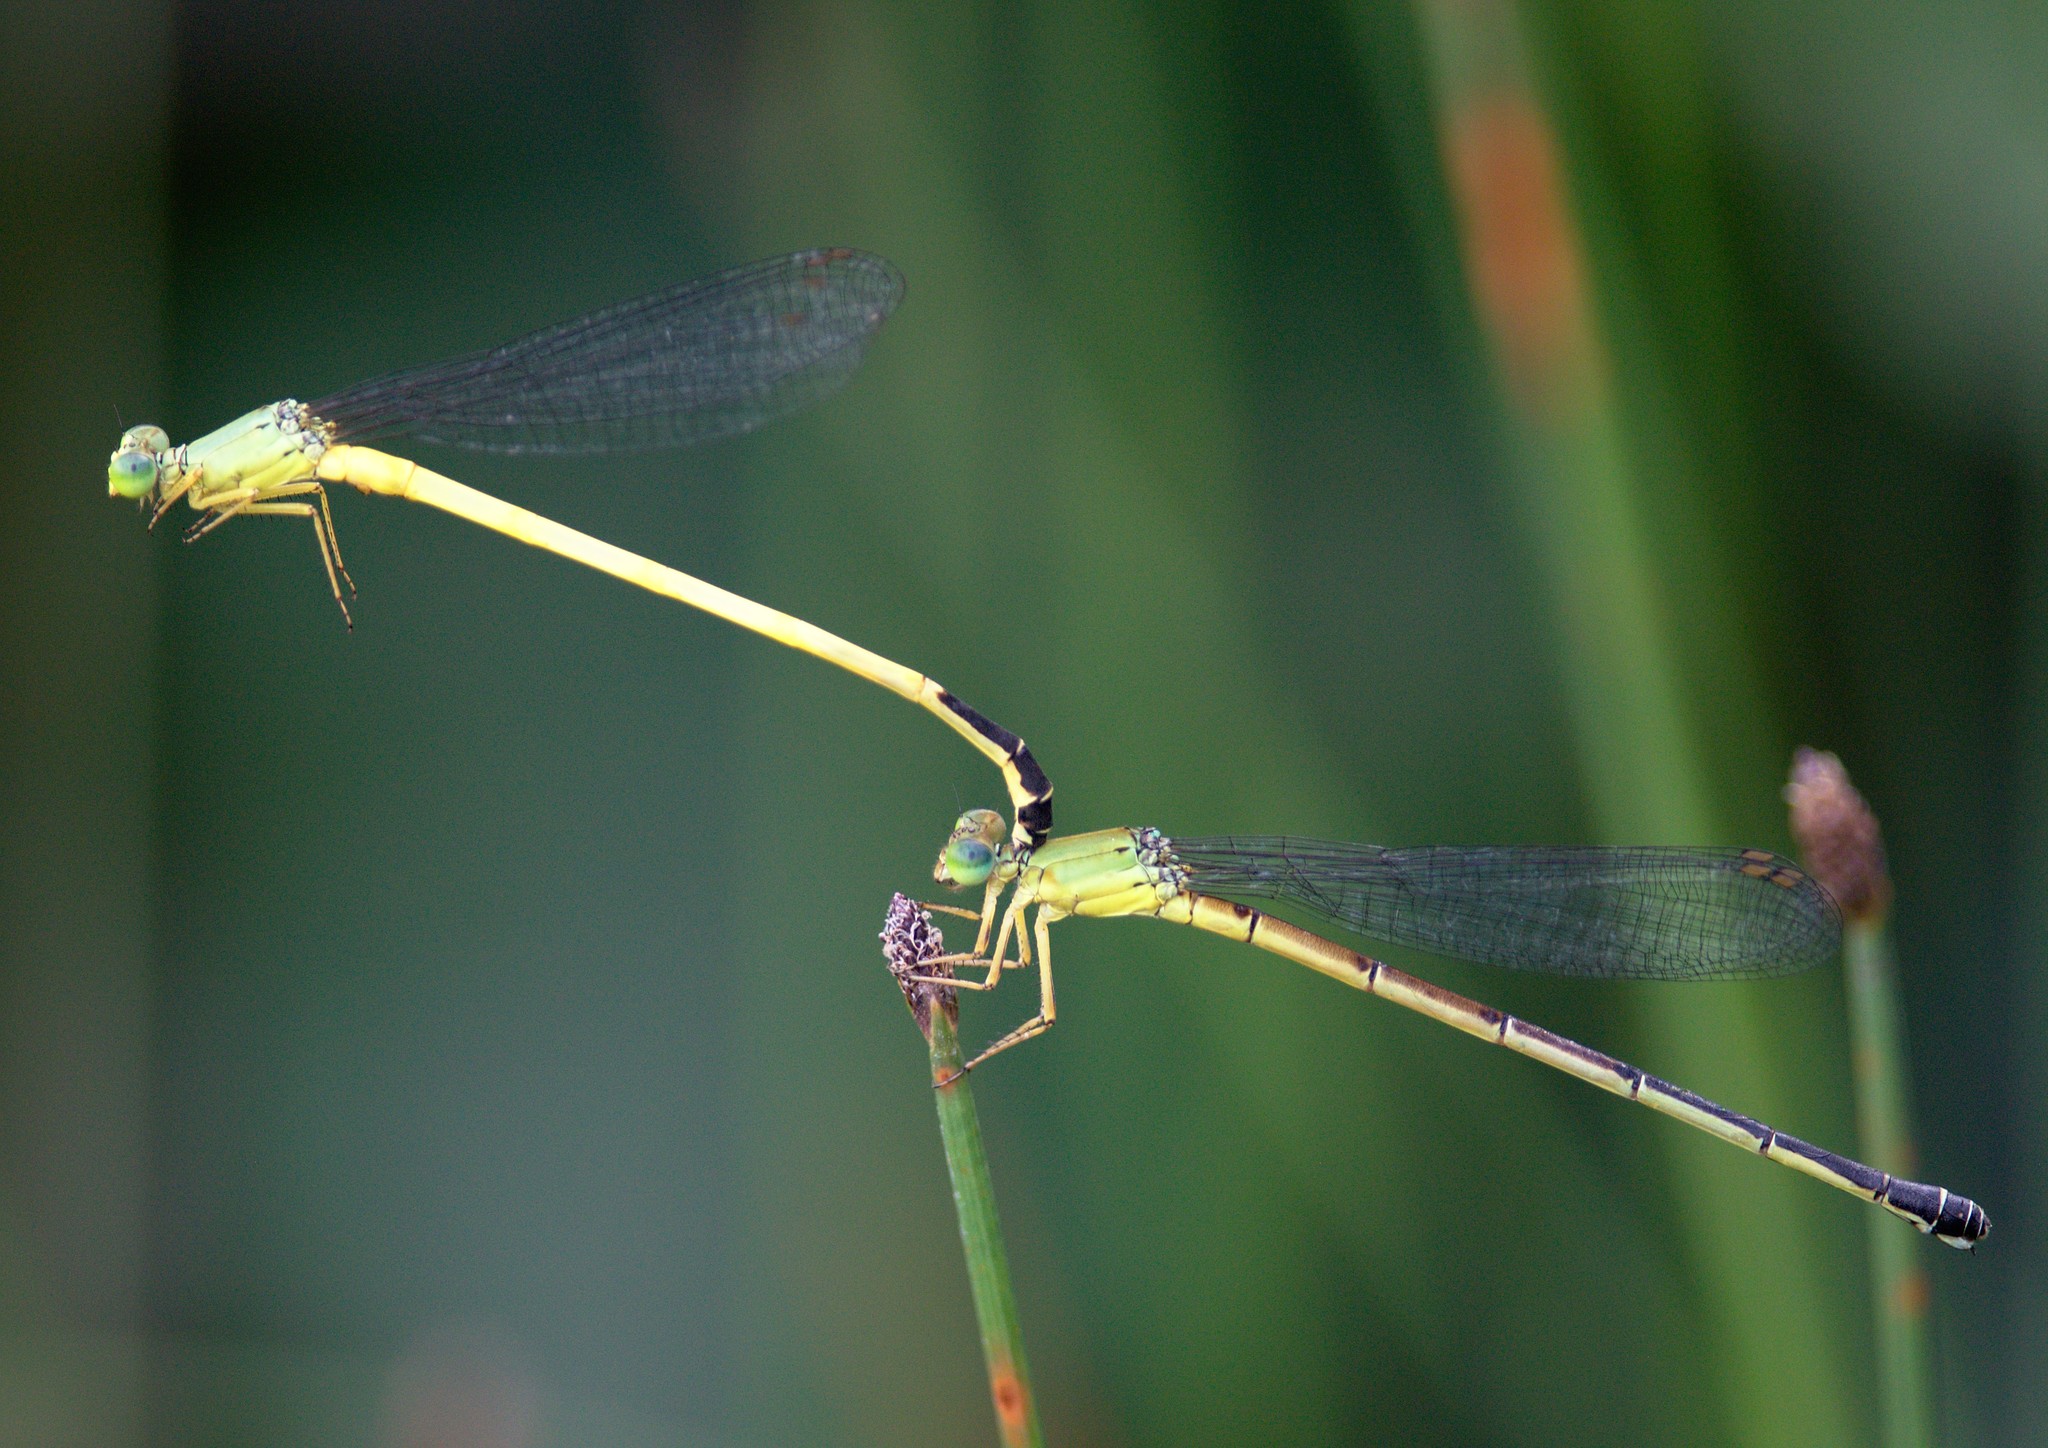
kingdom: Animalia
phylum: Arthropoda
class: Insecta
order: Odonata
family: Coenagrionidae
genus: Ceriagrion
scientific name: Ceriagrion fallax
